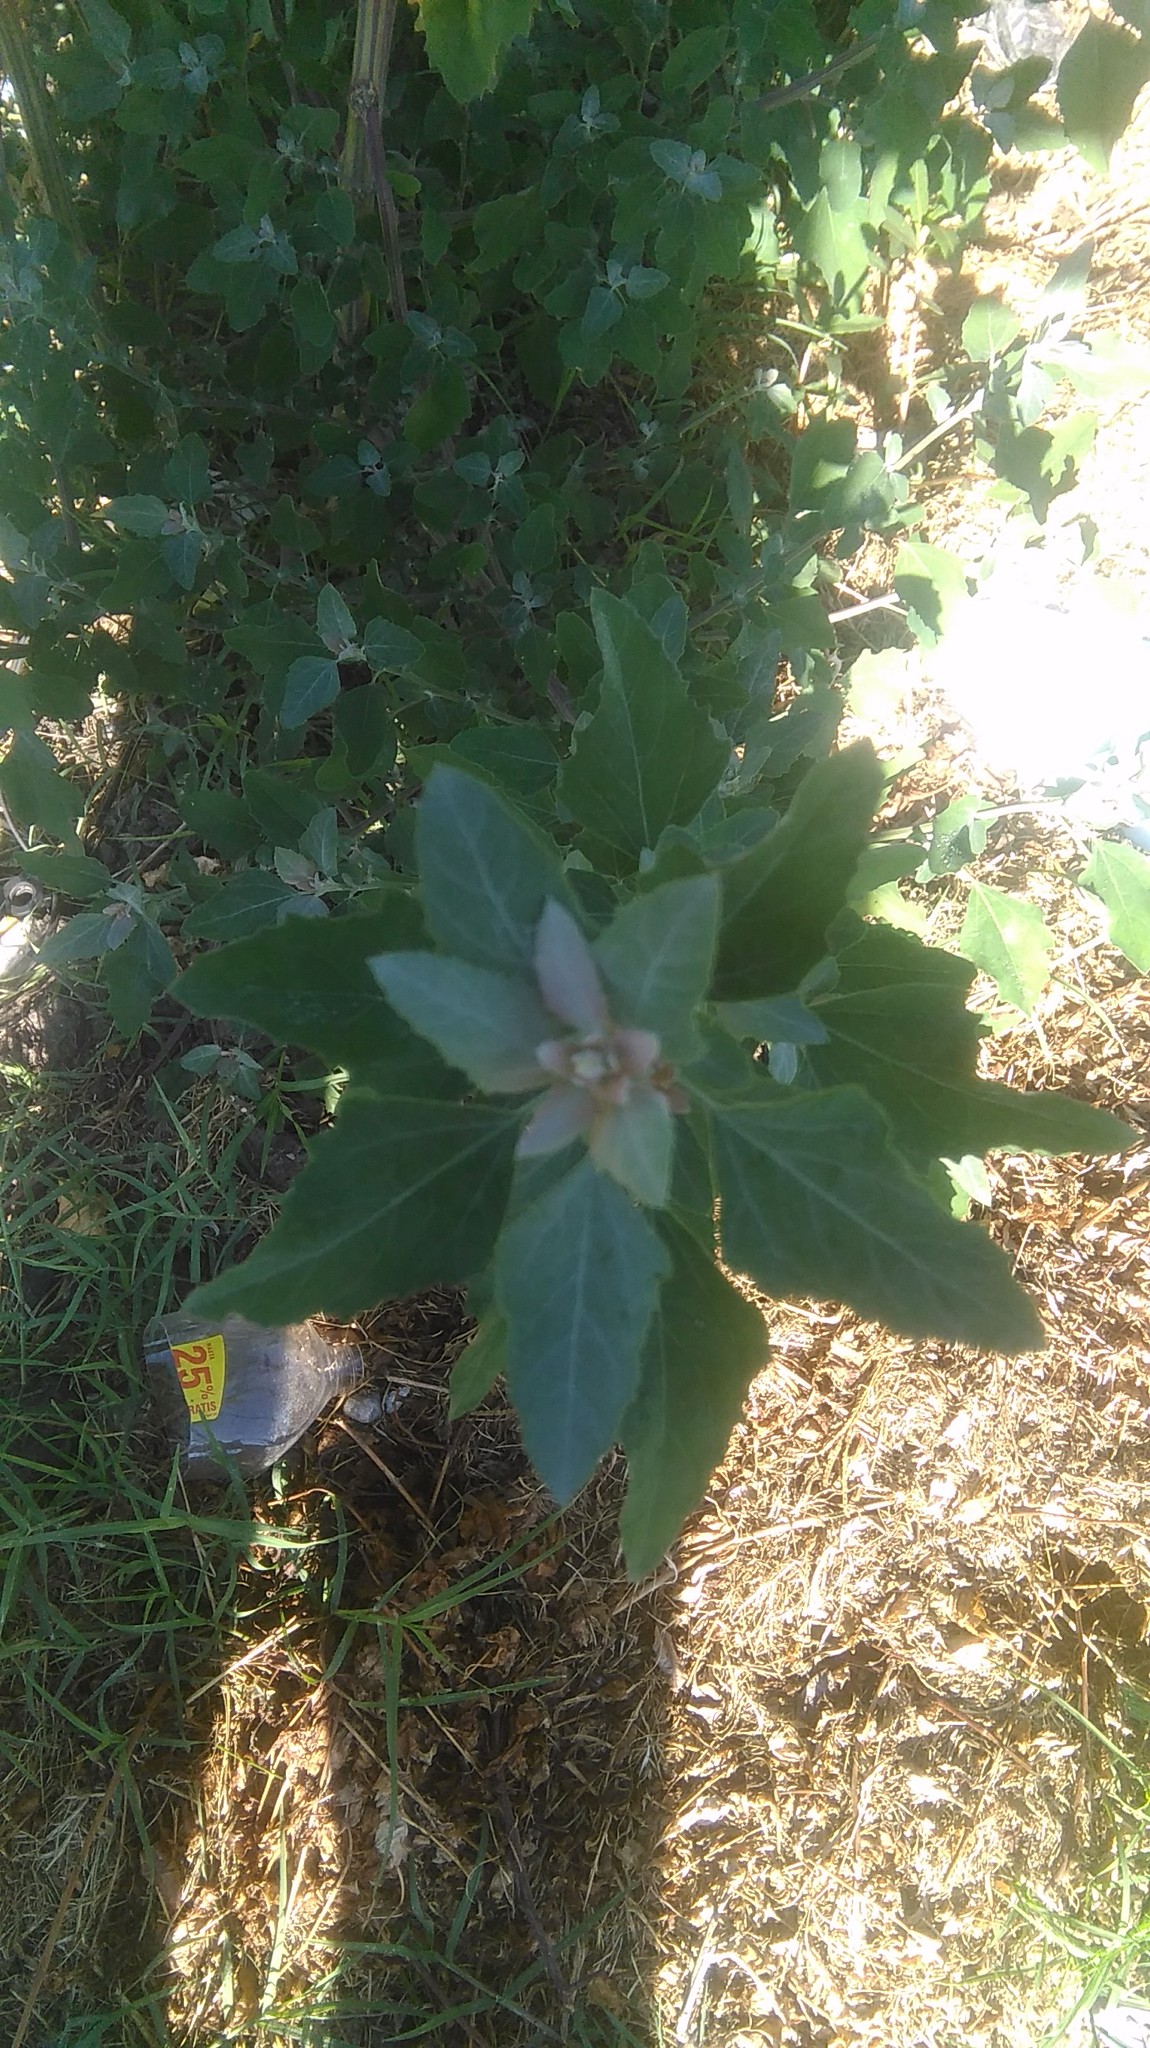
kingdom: Plantae
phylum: Tracheophyta
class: Magnoliopsida
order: Caryophyllales
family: Amaranthaceae
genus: Chenopodium
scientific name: Chenopodium album
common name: Fat-hen
